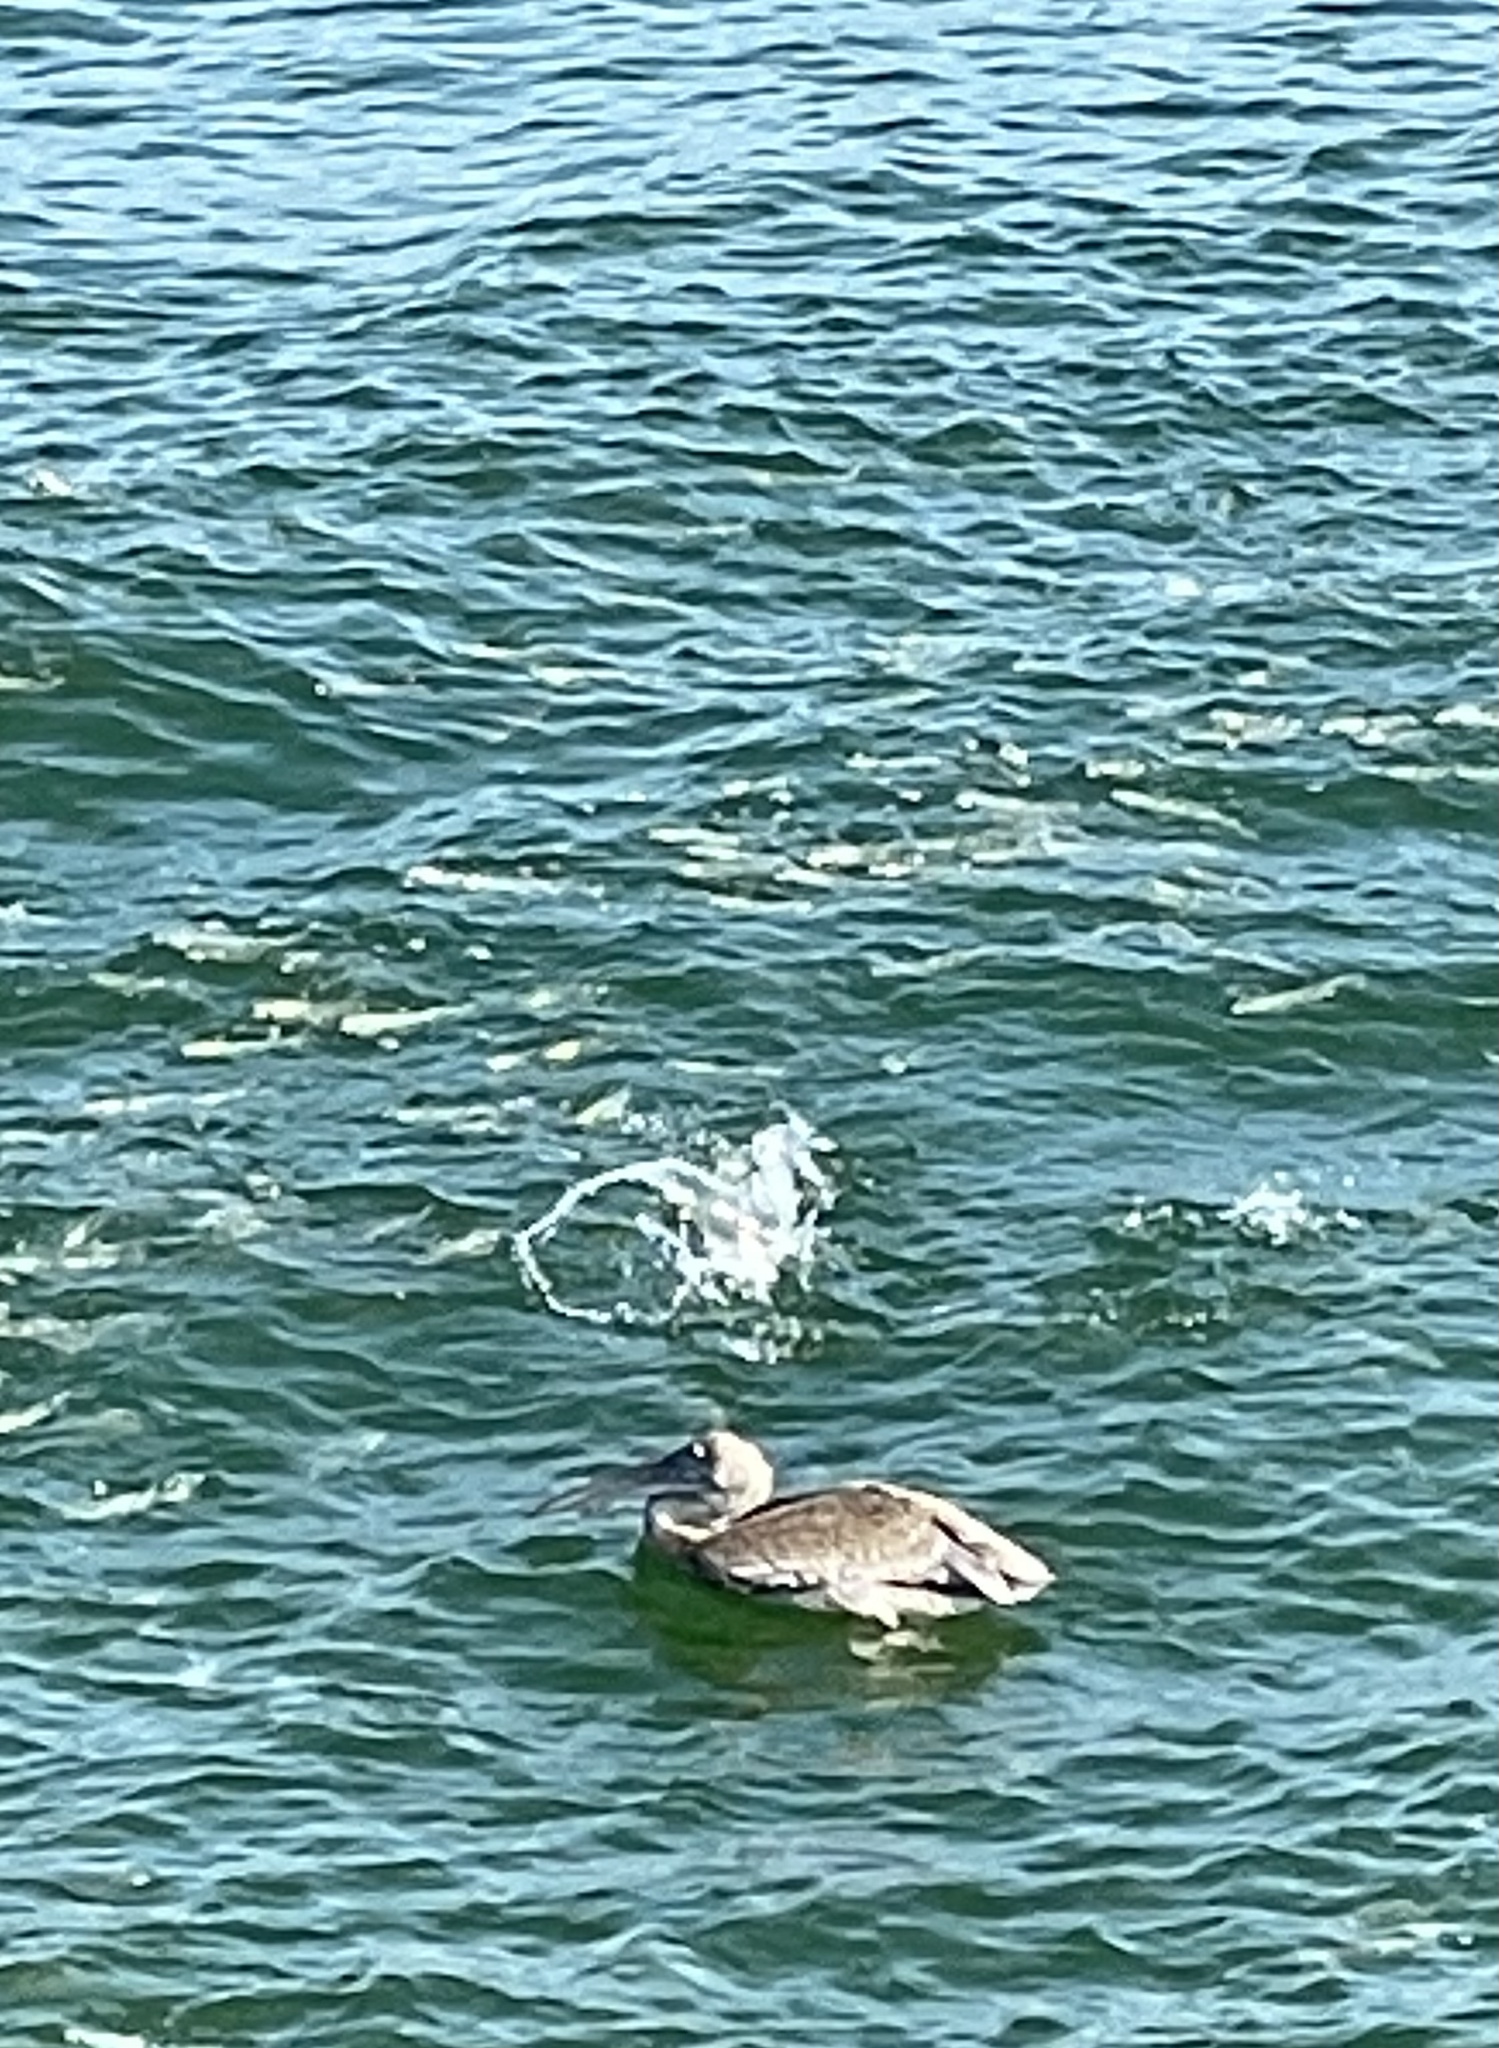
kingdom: Animalia
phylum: Chordata
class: Aves
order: Pelecaniformes
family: Pelecanidae
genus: Pelecanus
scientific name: Pelecanus occidentalis
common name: Brown pelican
